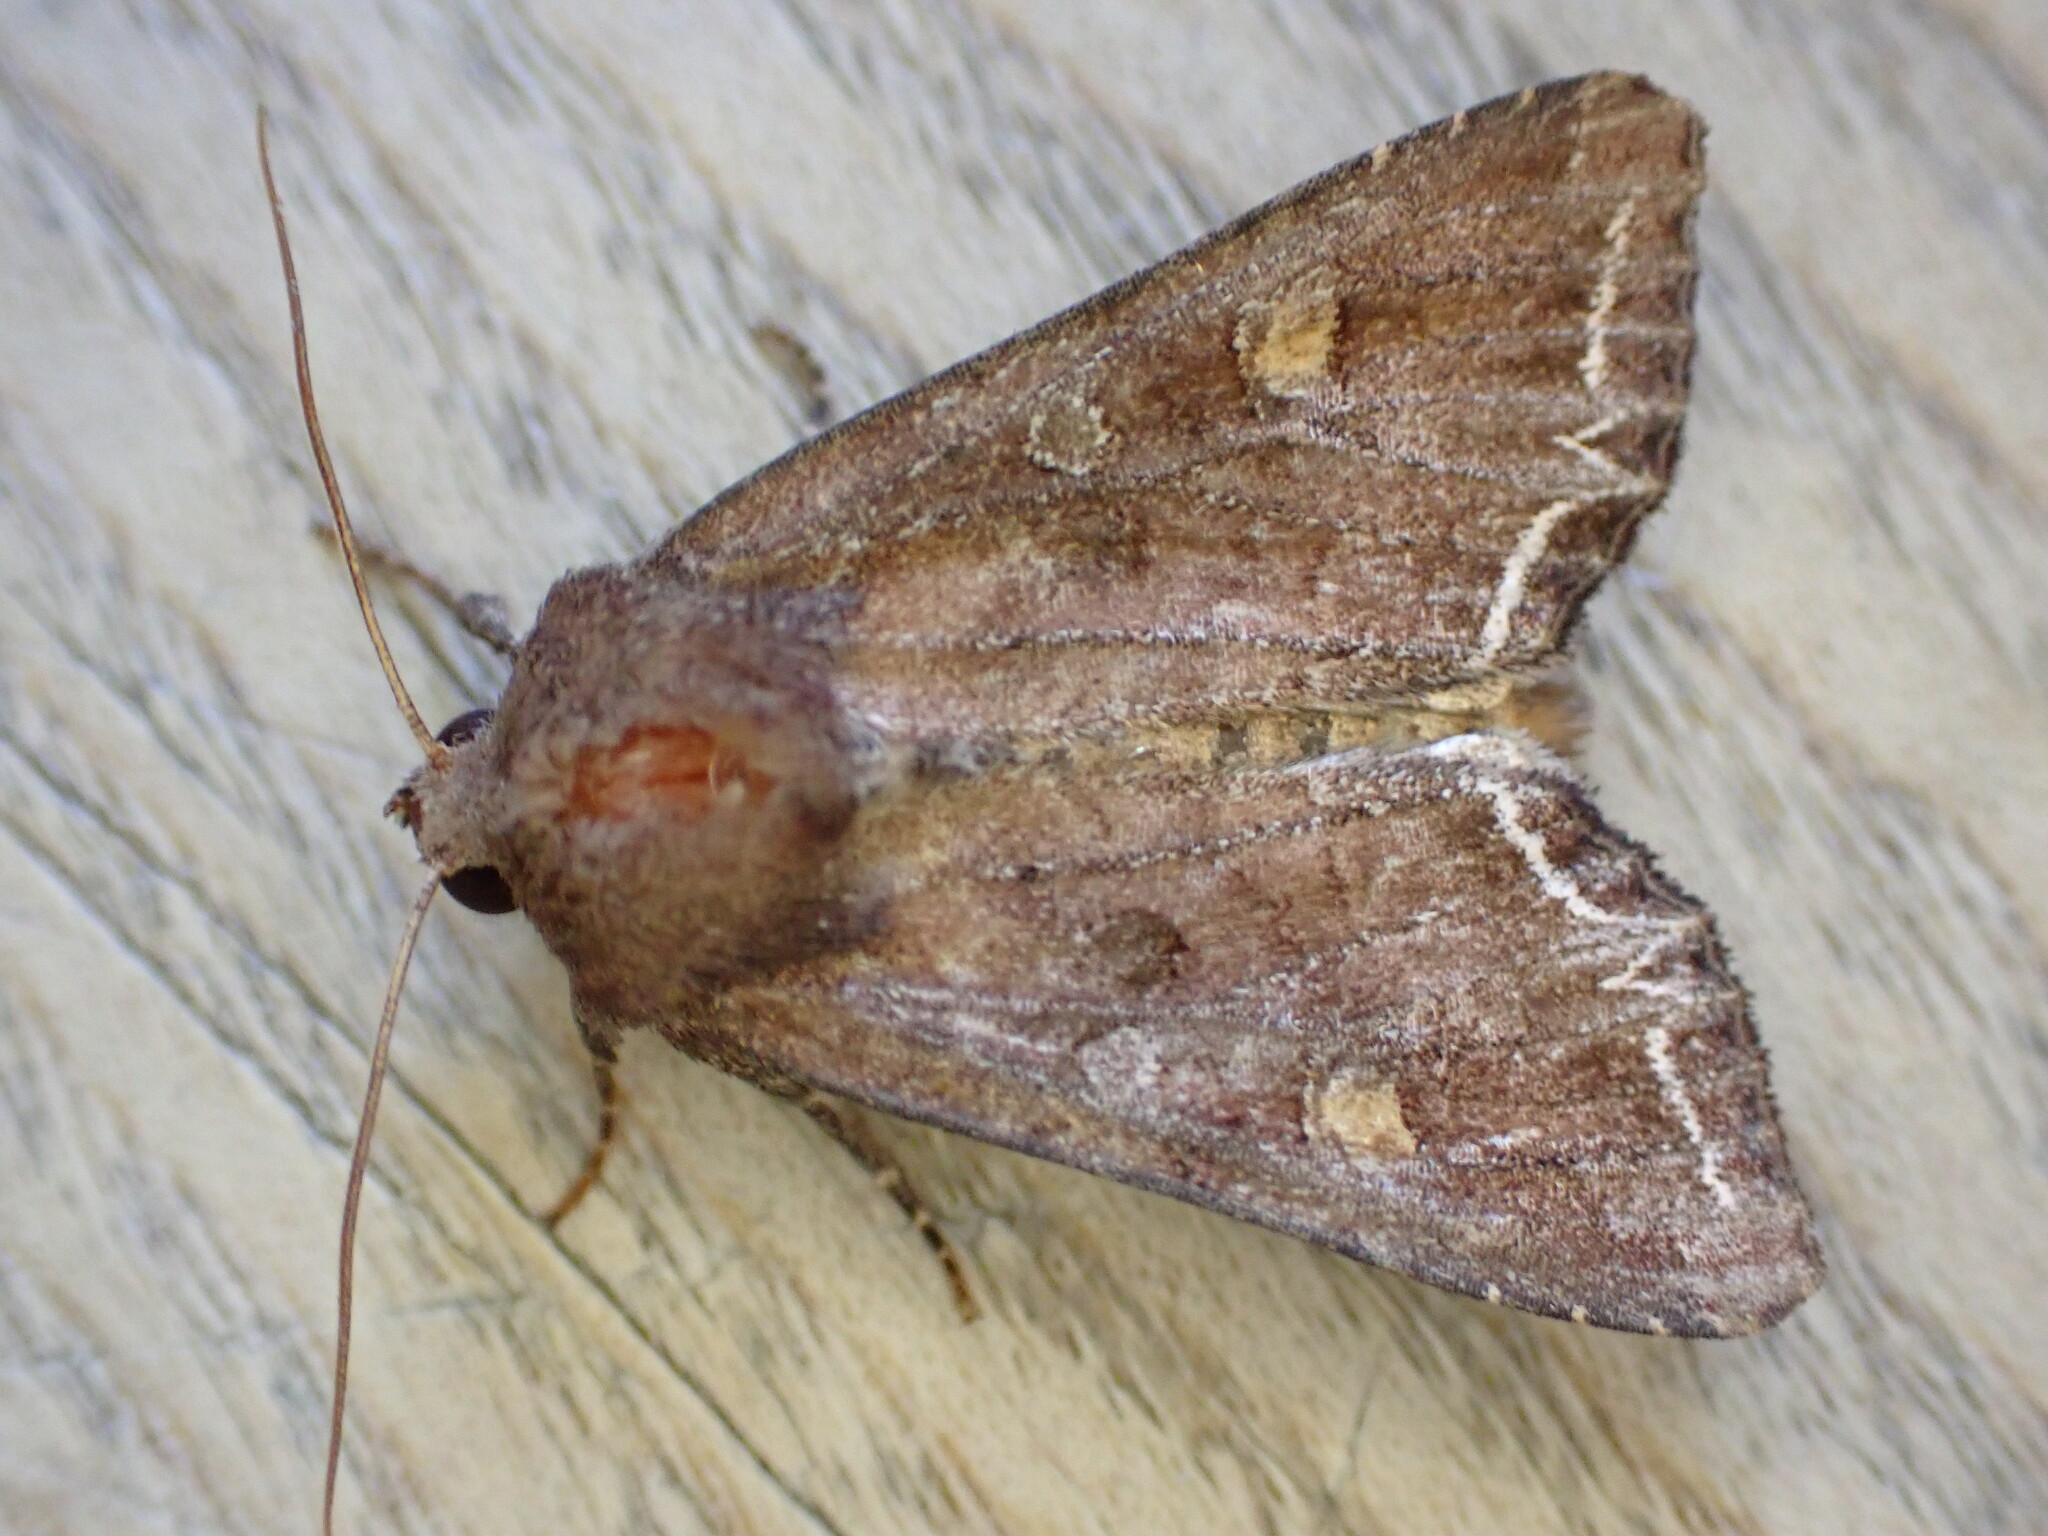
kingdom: Animalia
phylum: Arthropoda
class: Insecta
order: Lepidoptera
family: Noctuidae
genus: Lacanobia
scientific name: Lacanobia oleracea
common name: Bright-line brown-eye
